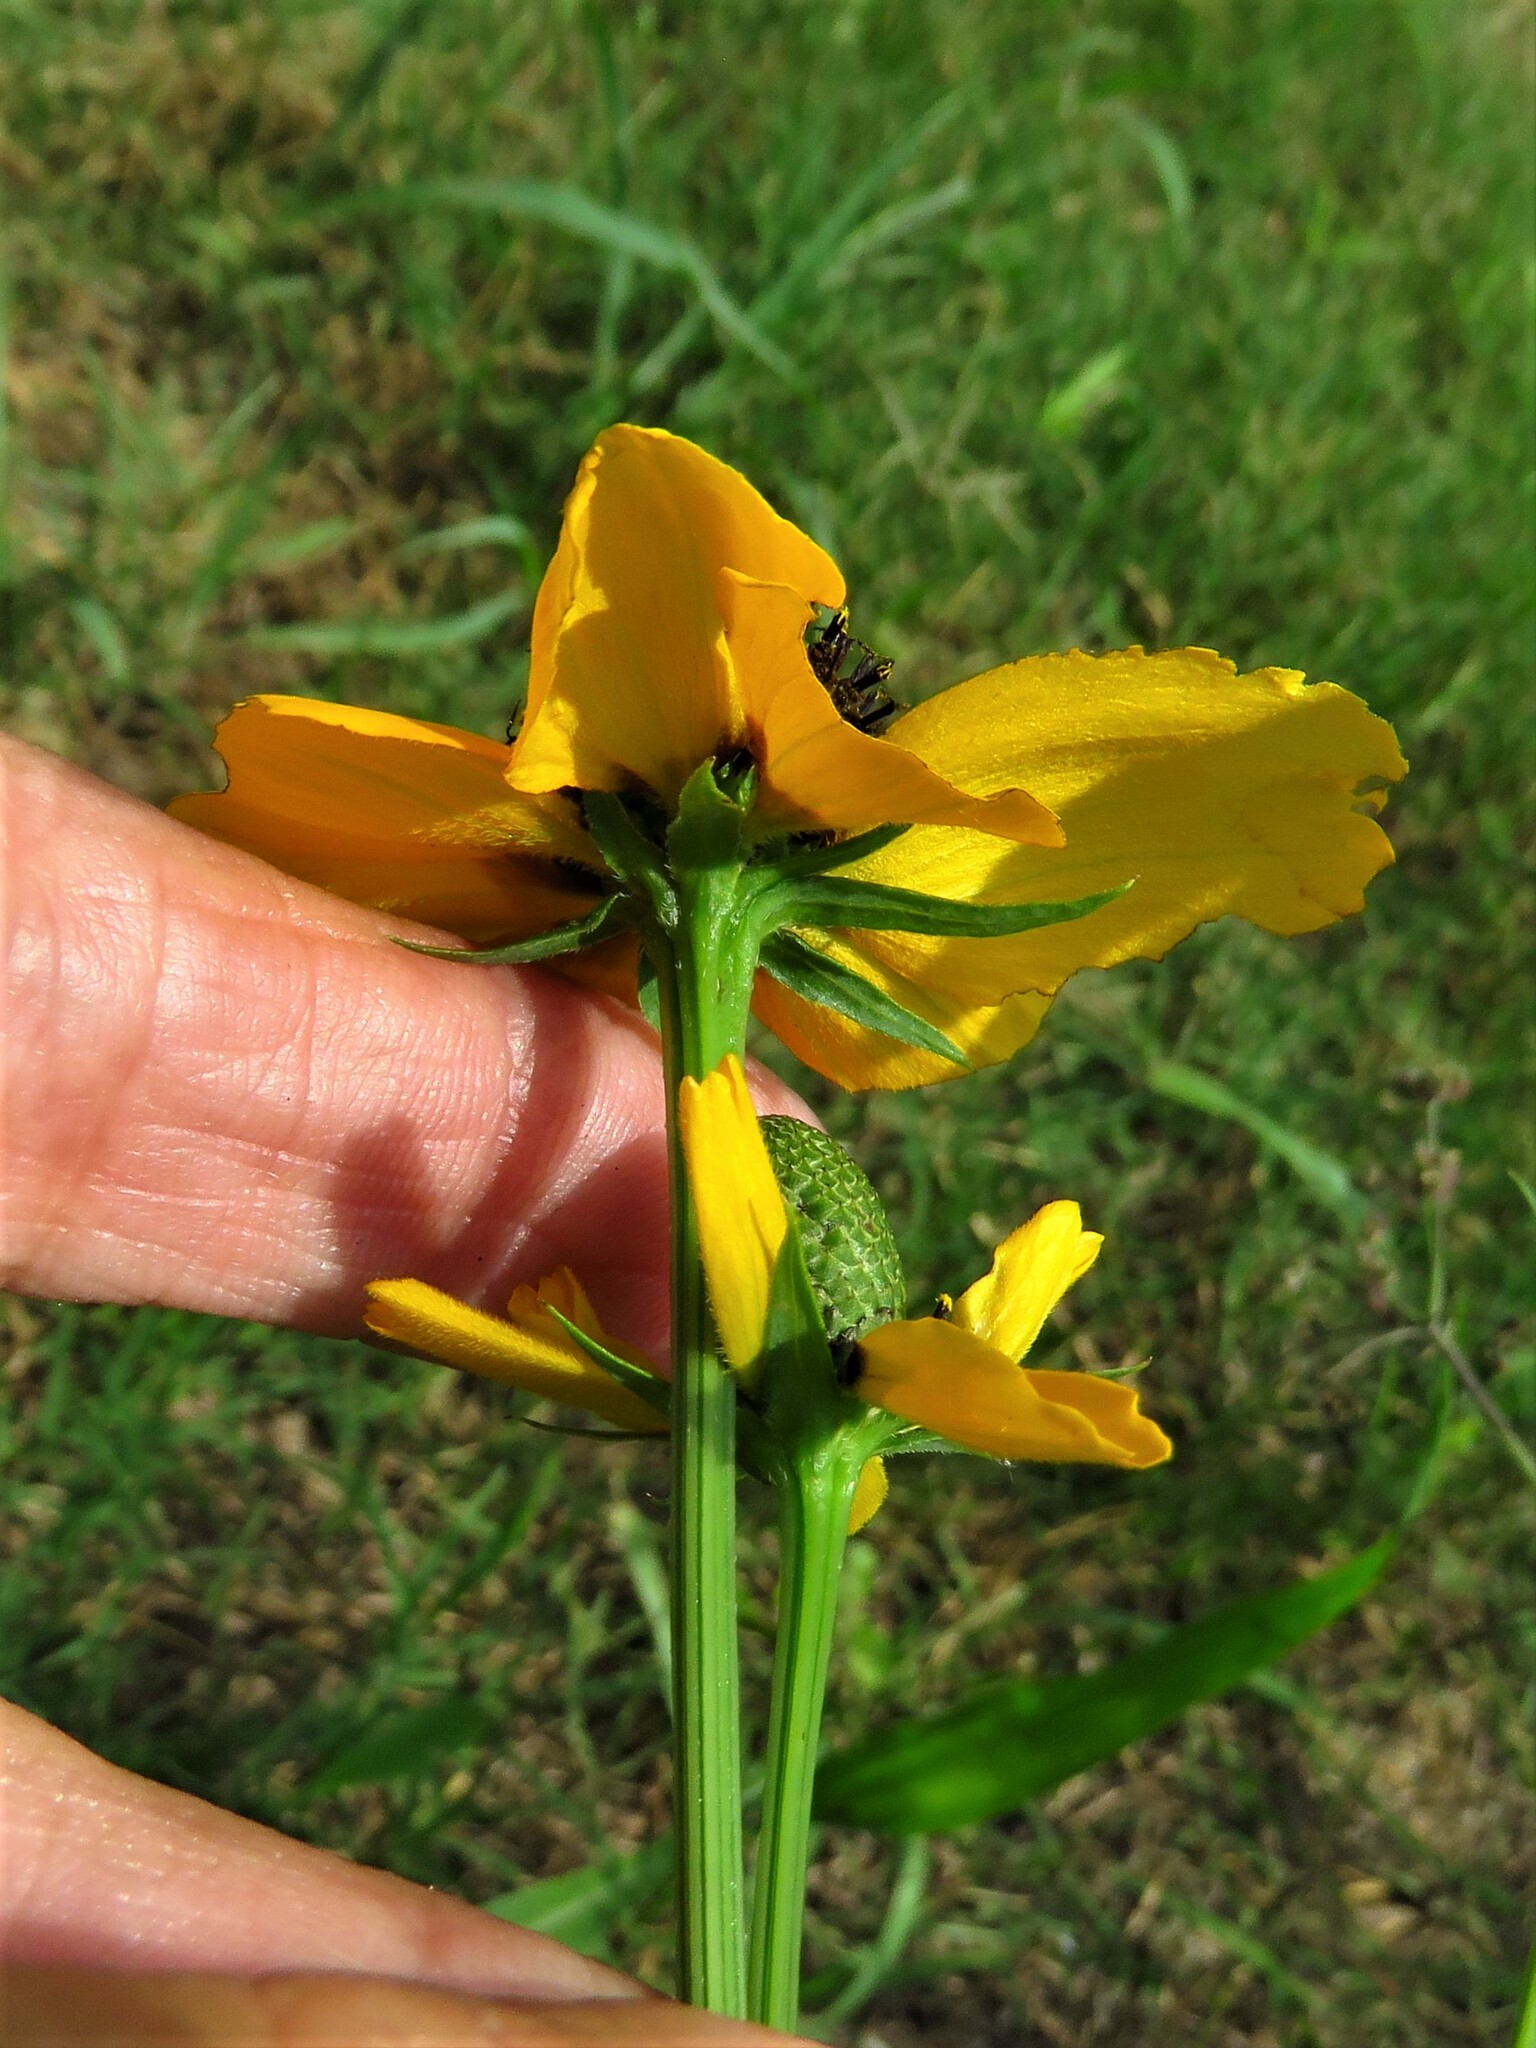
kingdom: Plantae
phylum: Tracheophyta
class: Magnoliopsida
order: Asterales
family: Asteraceae
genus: Rudbeckia
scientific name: Rudbeckia amplexicaulis
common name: Clasping-leaf coneflower
